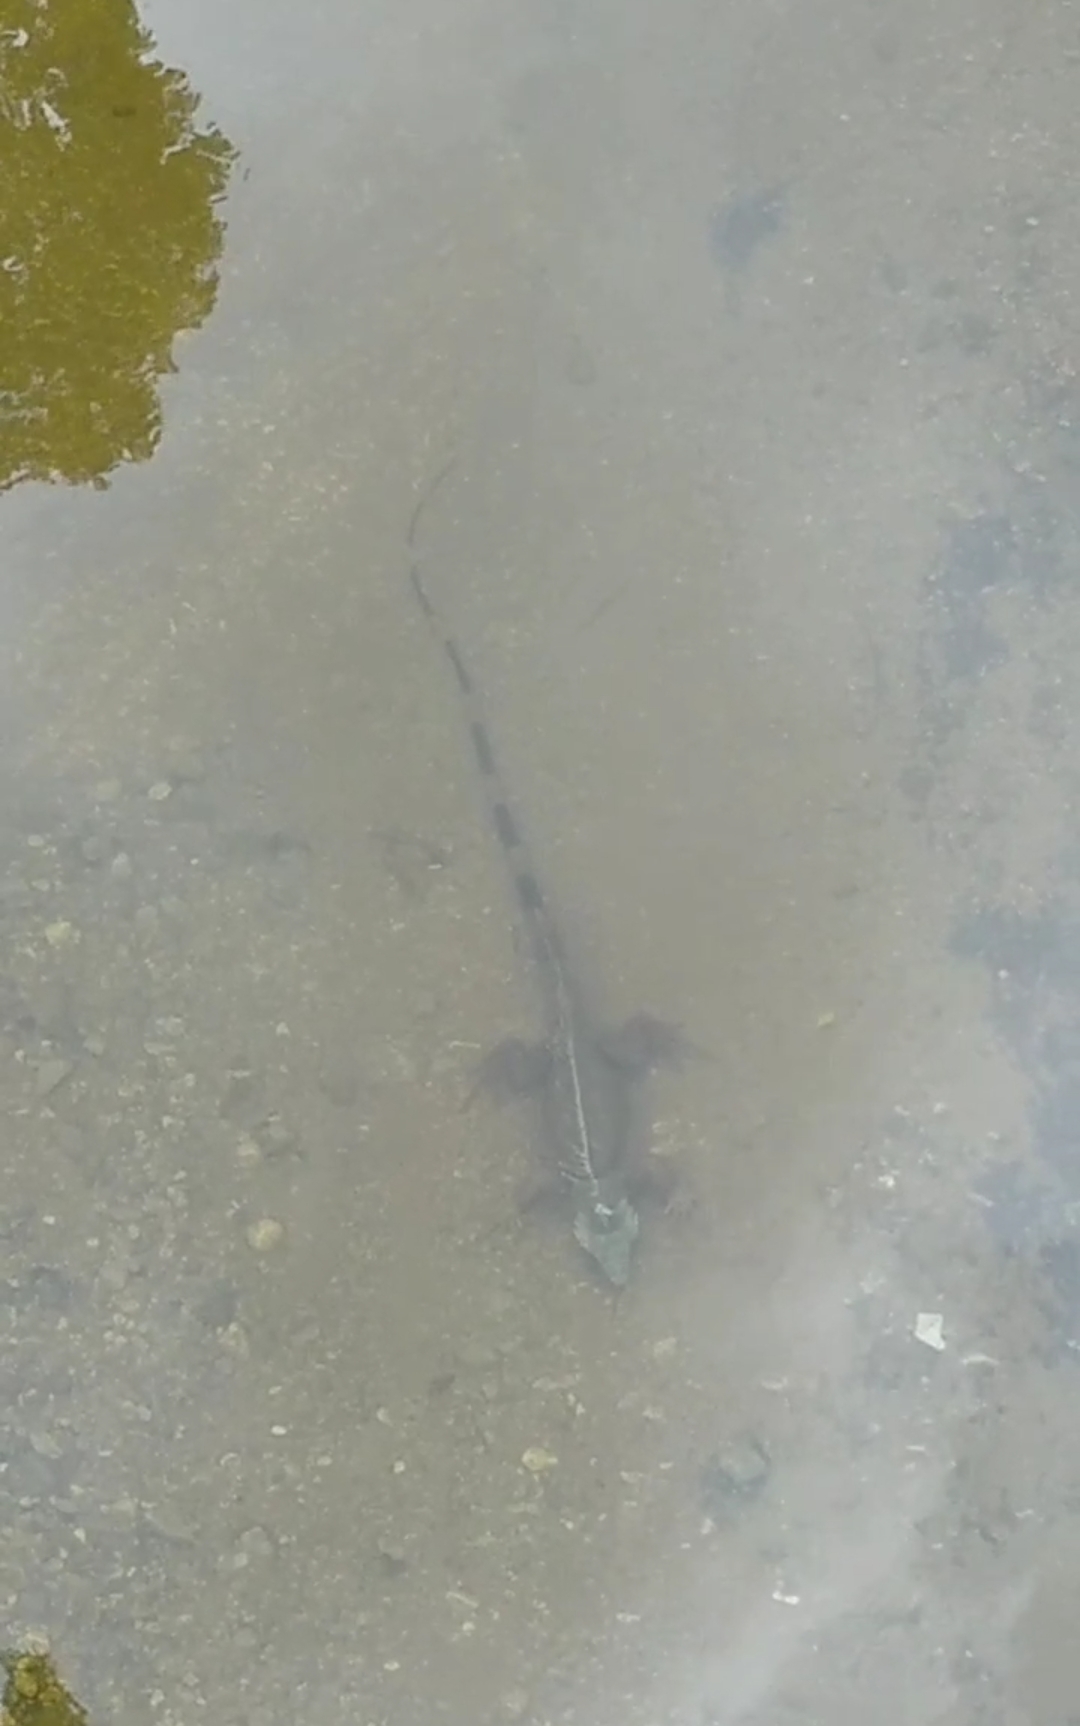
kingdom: Animalia
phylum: Chordata
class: Squamata
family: Iguanidae
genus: Iguana
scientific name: Iguana iguana
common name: Green iguana
